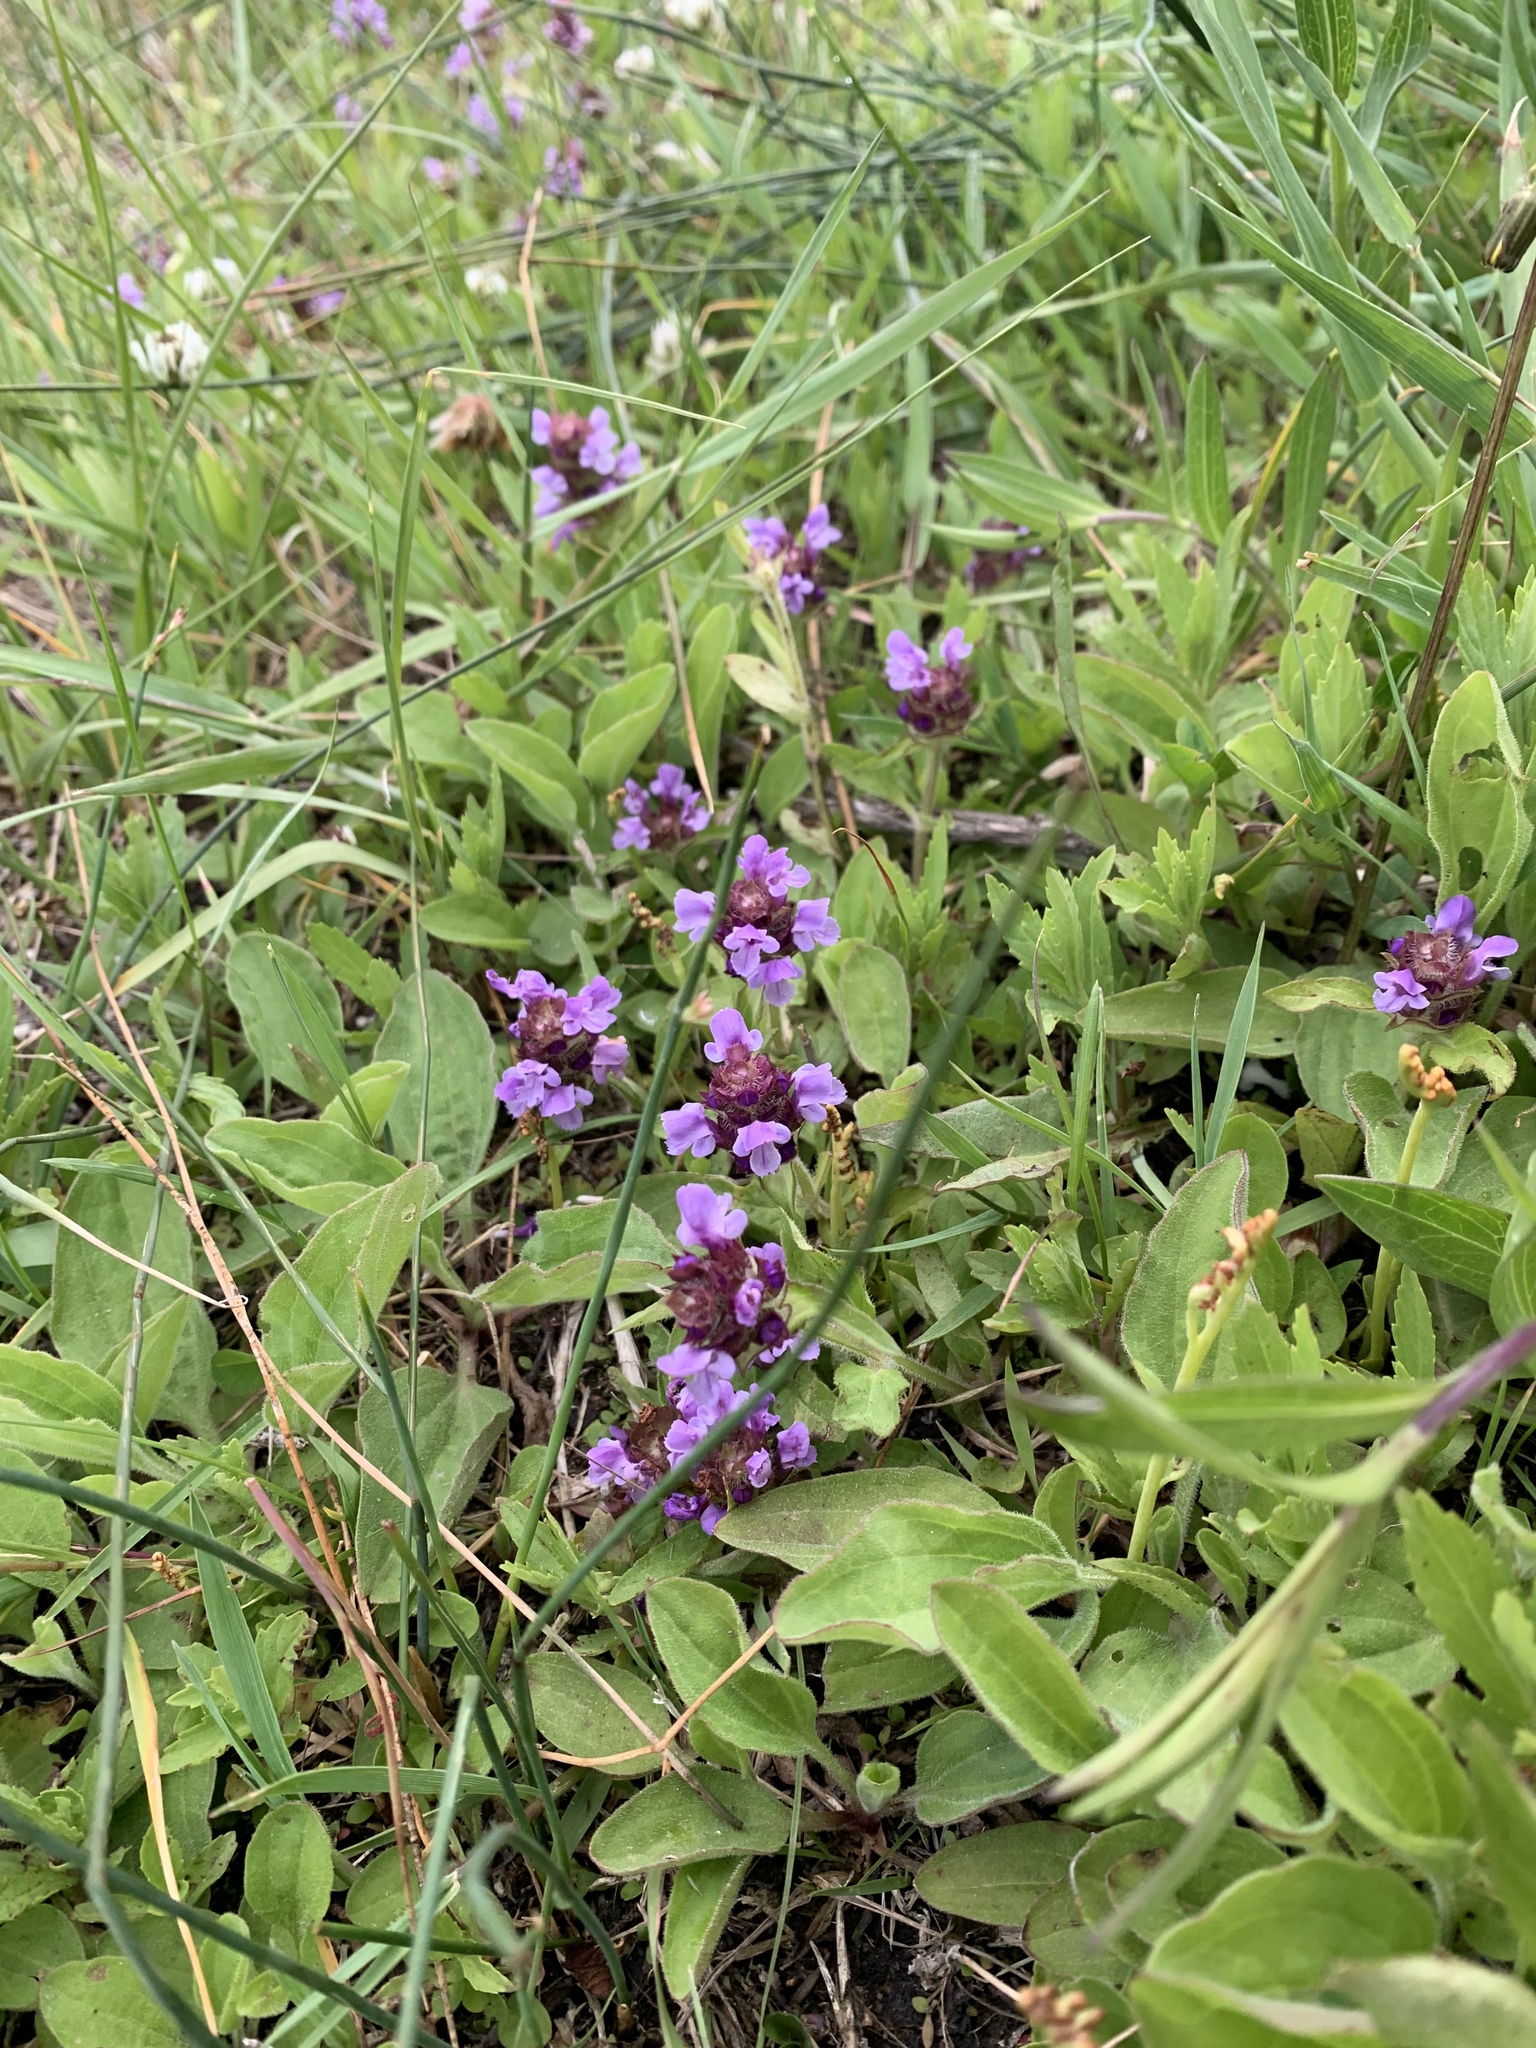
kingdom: Plantae
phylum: Tracheophyta
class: Magnoliopsida
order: Lamiales
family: Lamiaceae
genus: Prunella
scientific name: Prunella vulgaris
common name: Heal-all
